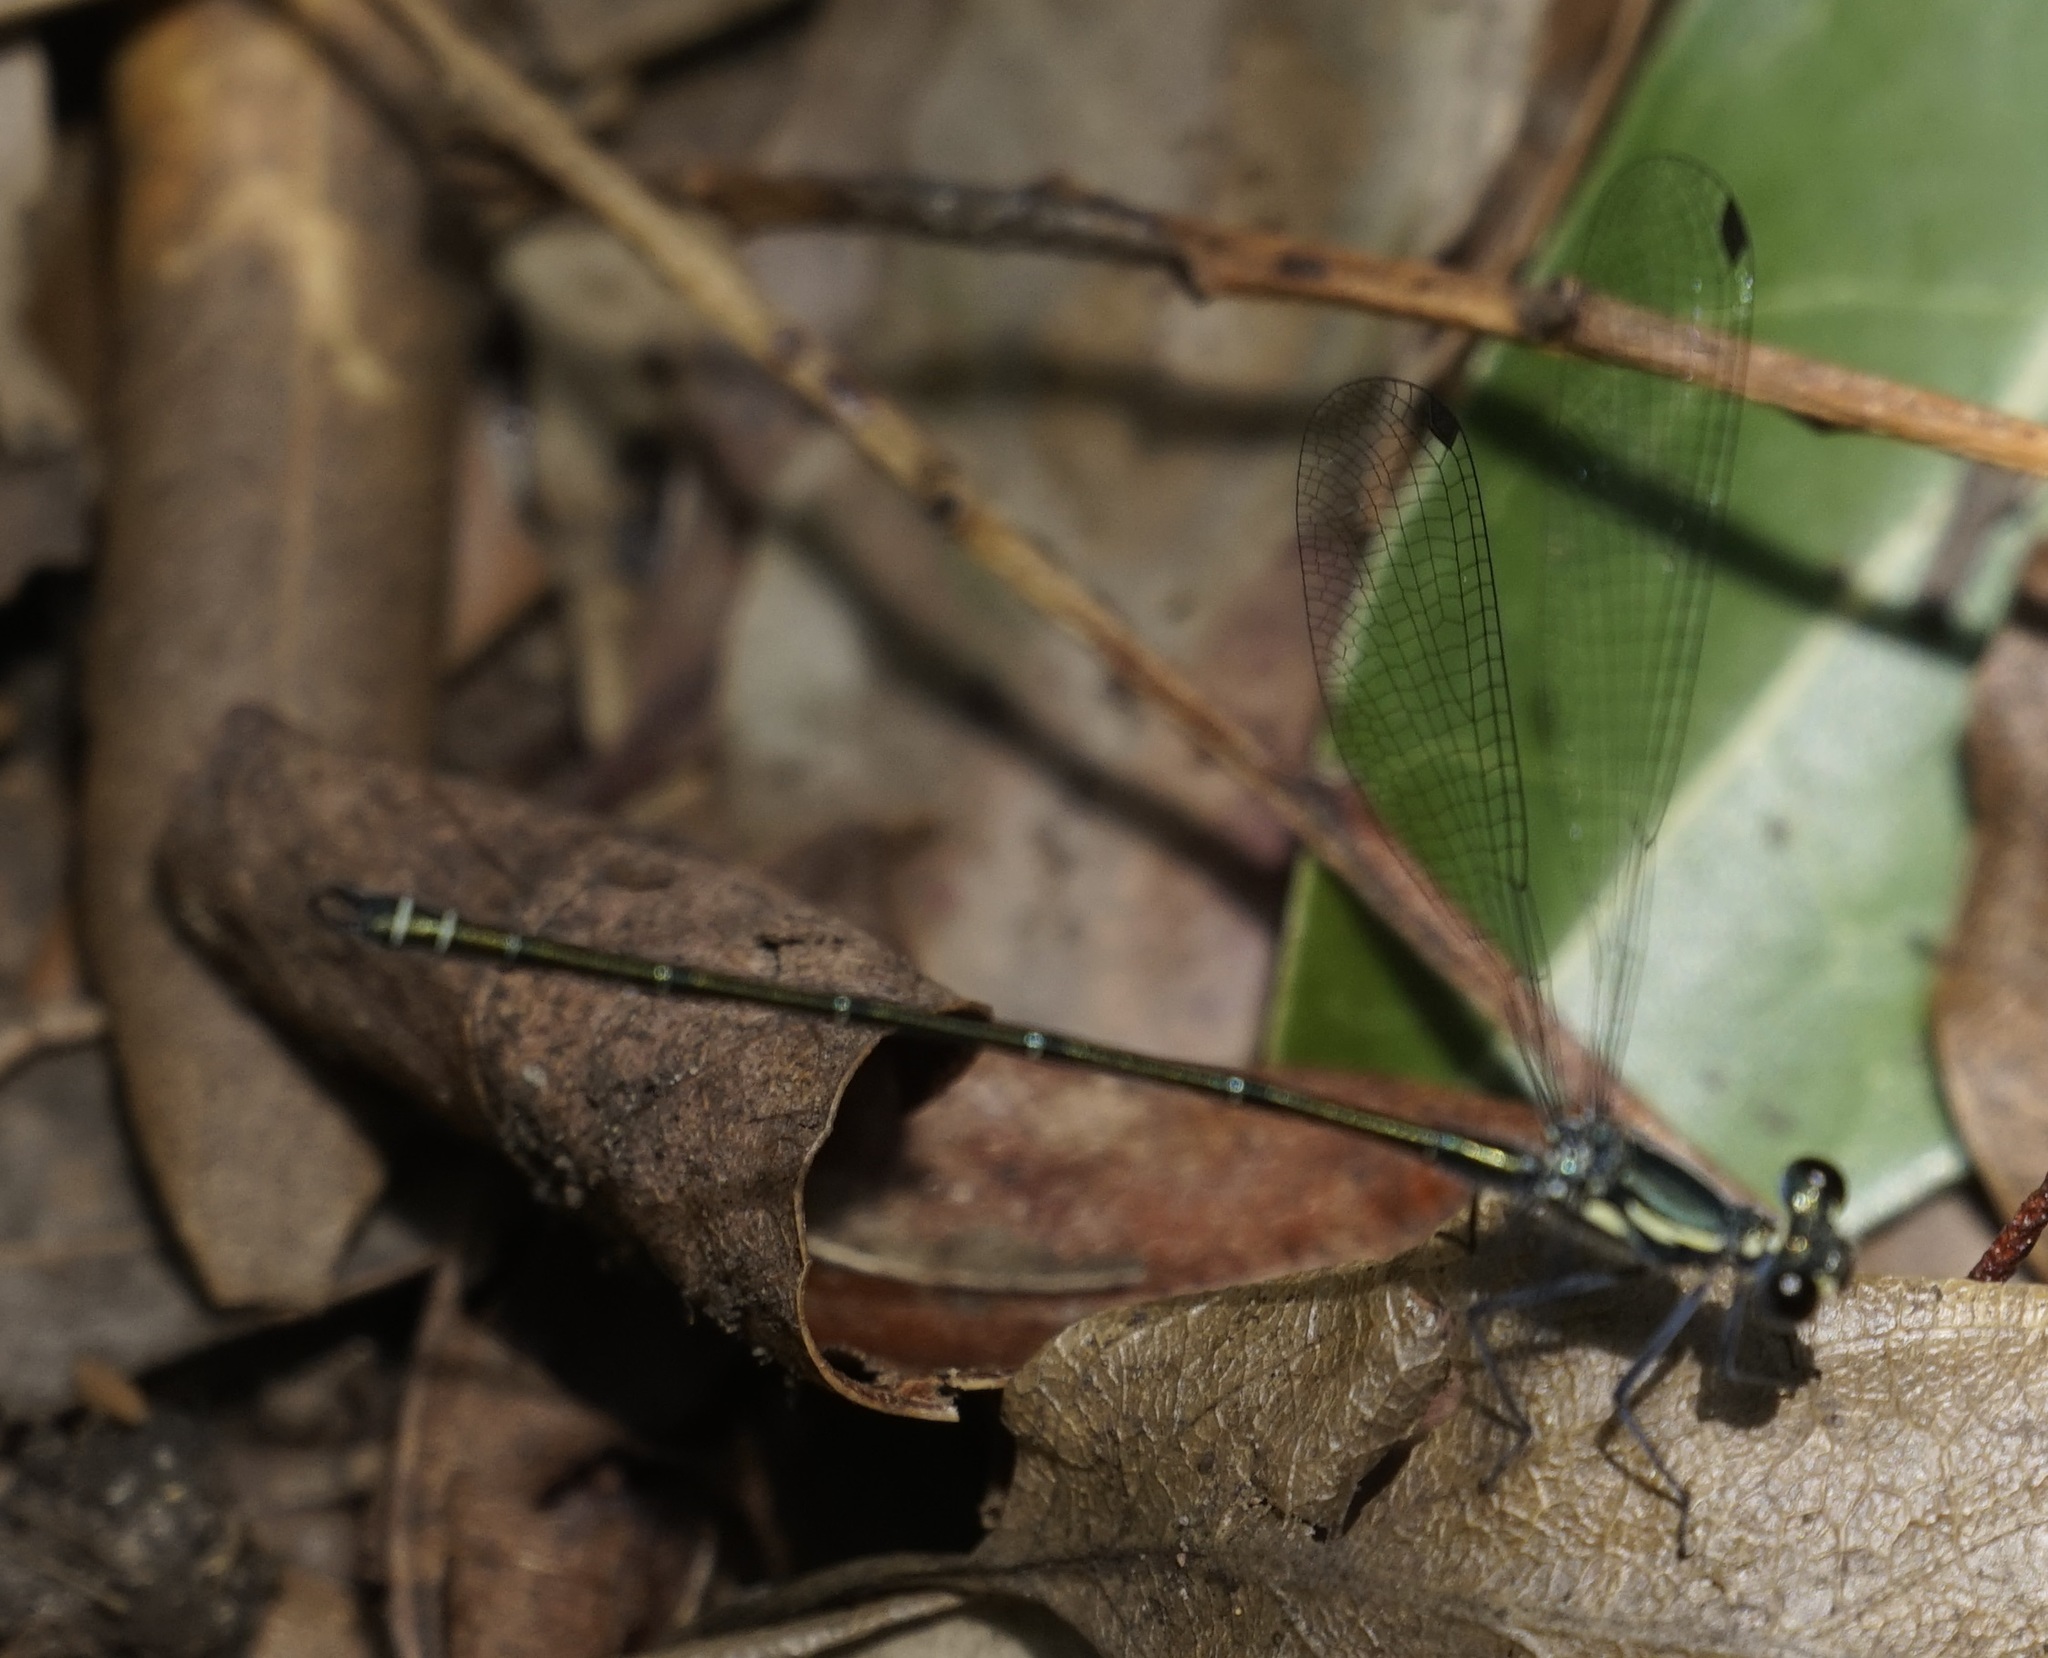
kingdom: Animalia
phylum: Arthropoda
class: Insecta
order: Odonata
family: Argiolestidae
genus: Austroargiolestes
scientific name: Austroargiolestes icteromelas
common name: Common flatwing
